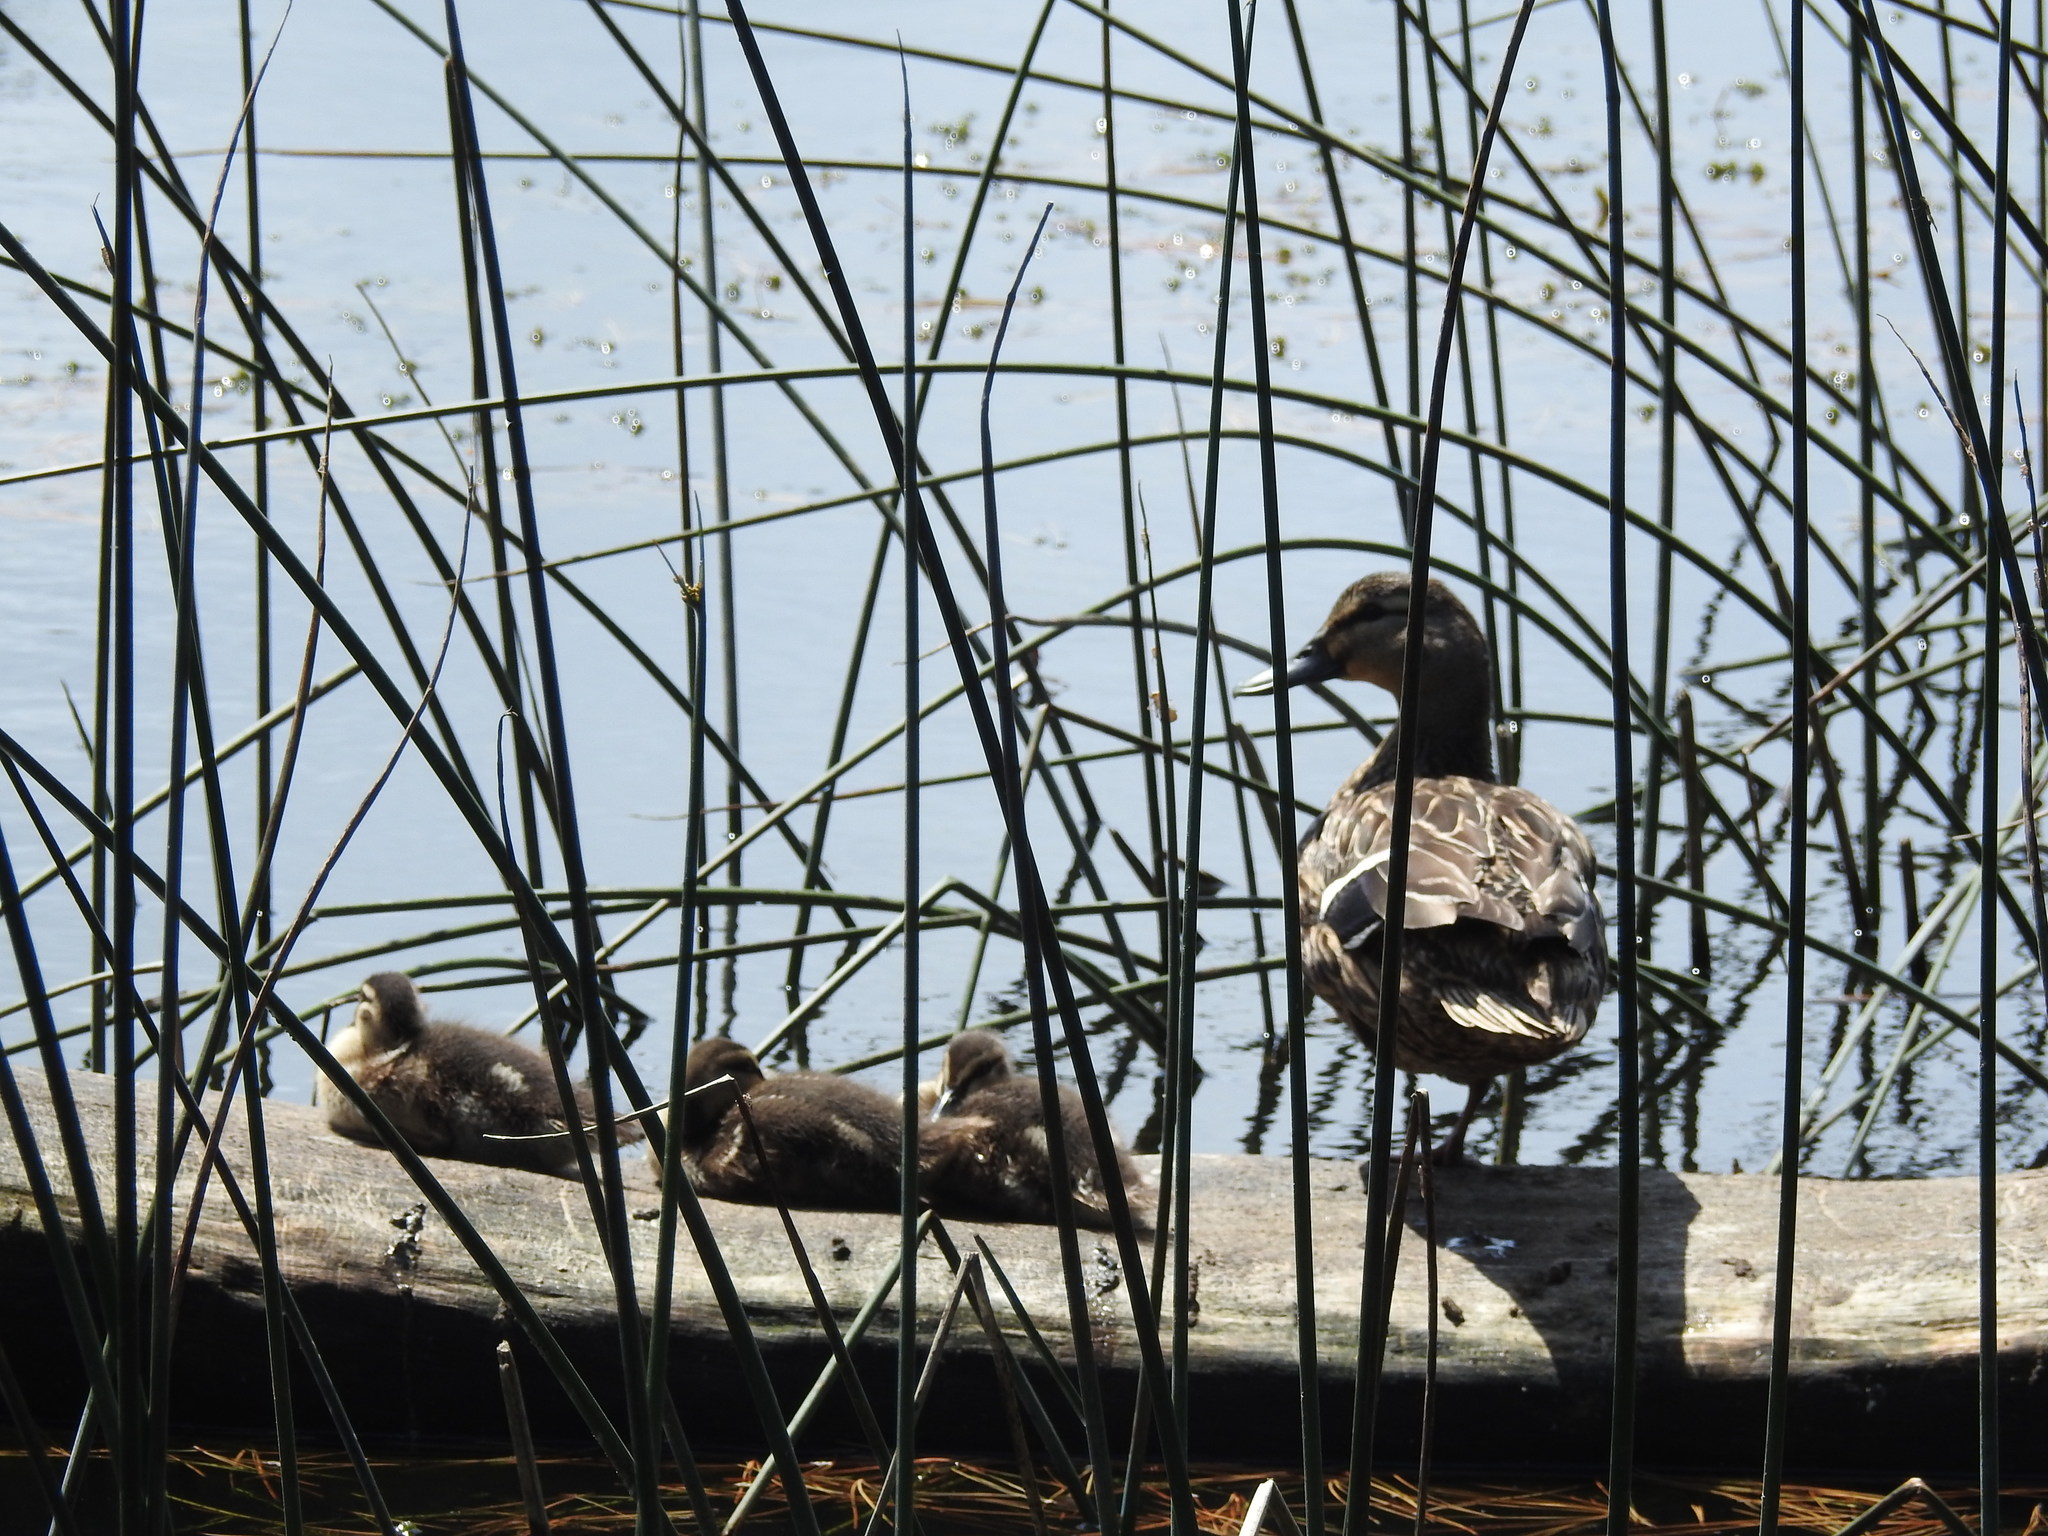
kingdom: Animalia
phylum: Chordata
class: Aves
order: Anseriformes
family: Anatidae
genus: Anas
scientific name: Anas
